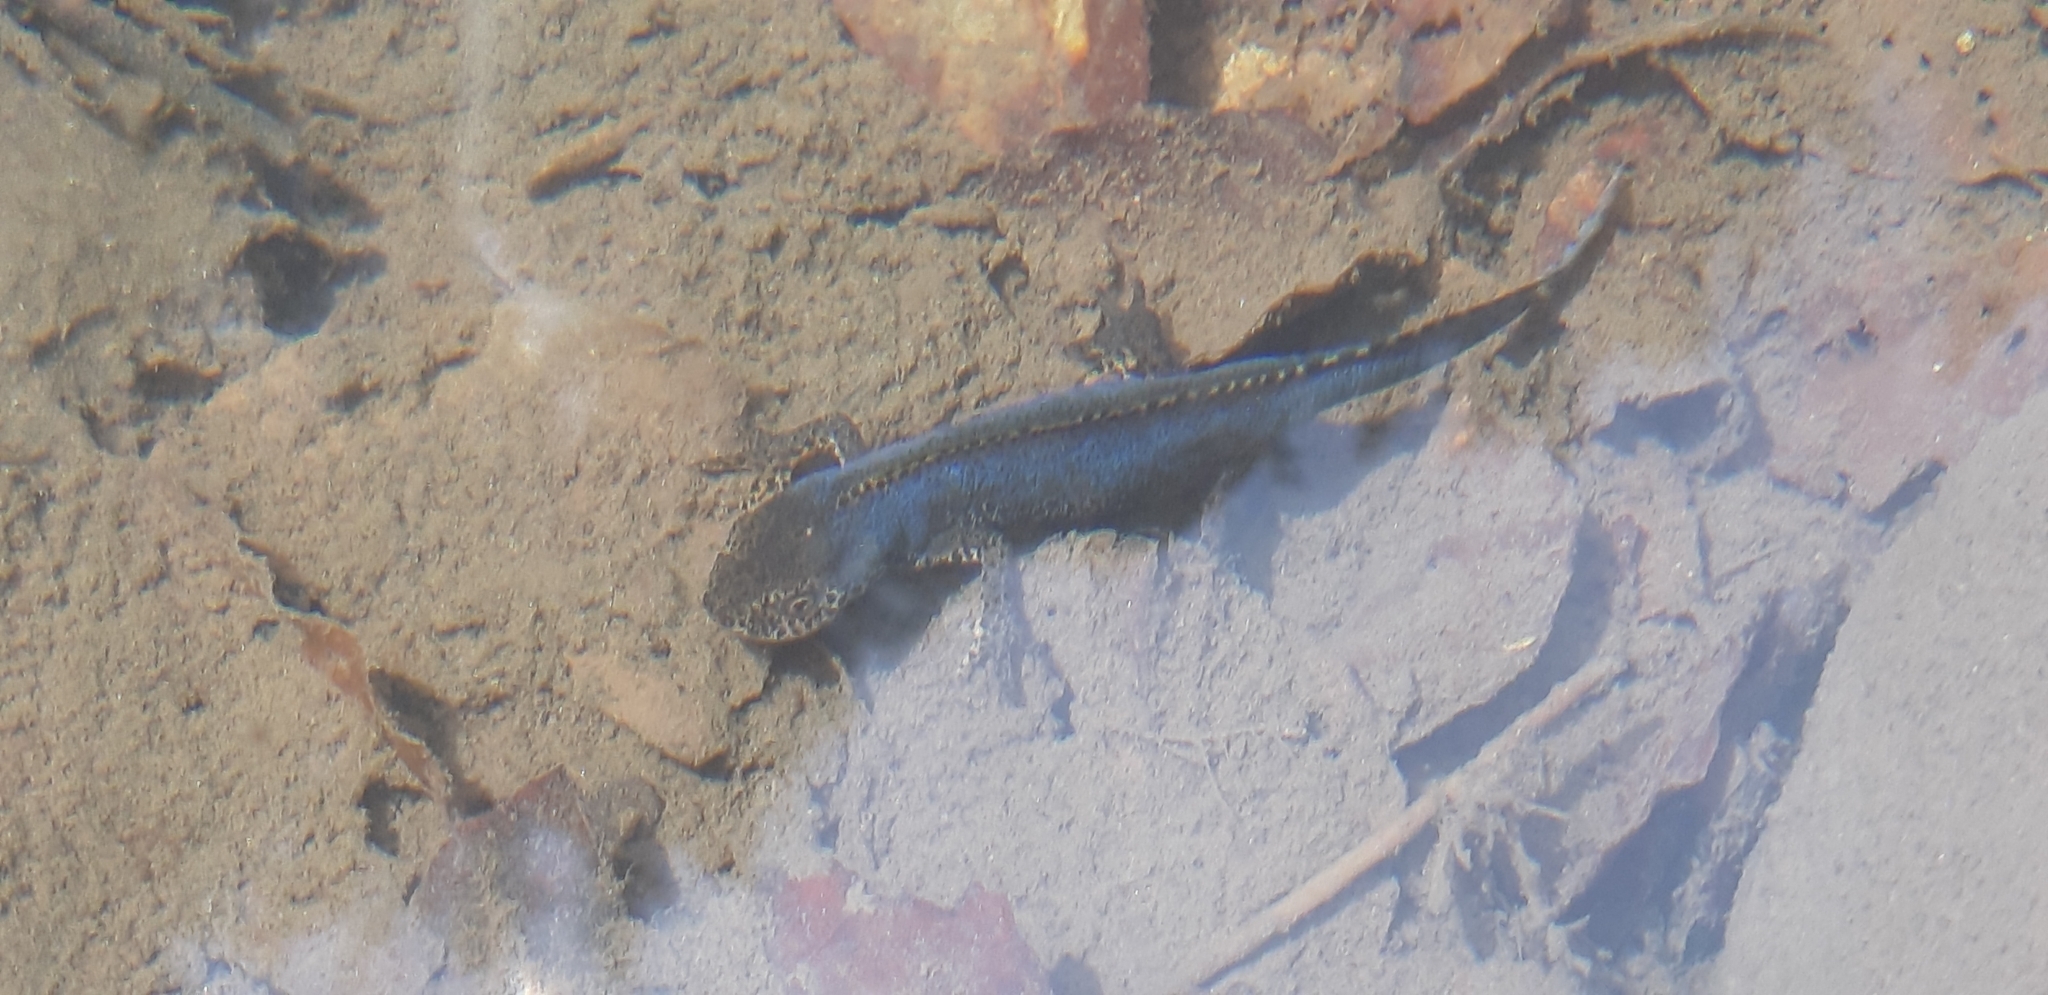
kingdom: Animalia
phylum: Chordata
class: Amphibia
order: Caudata
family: Salamandridae
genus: Ichthyosaura
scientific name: Ichthyosaura alpestris
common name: Alpine newt
